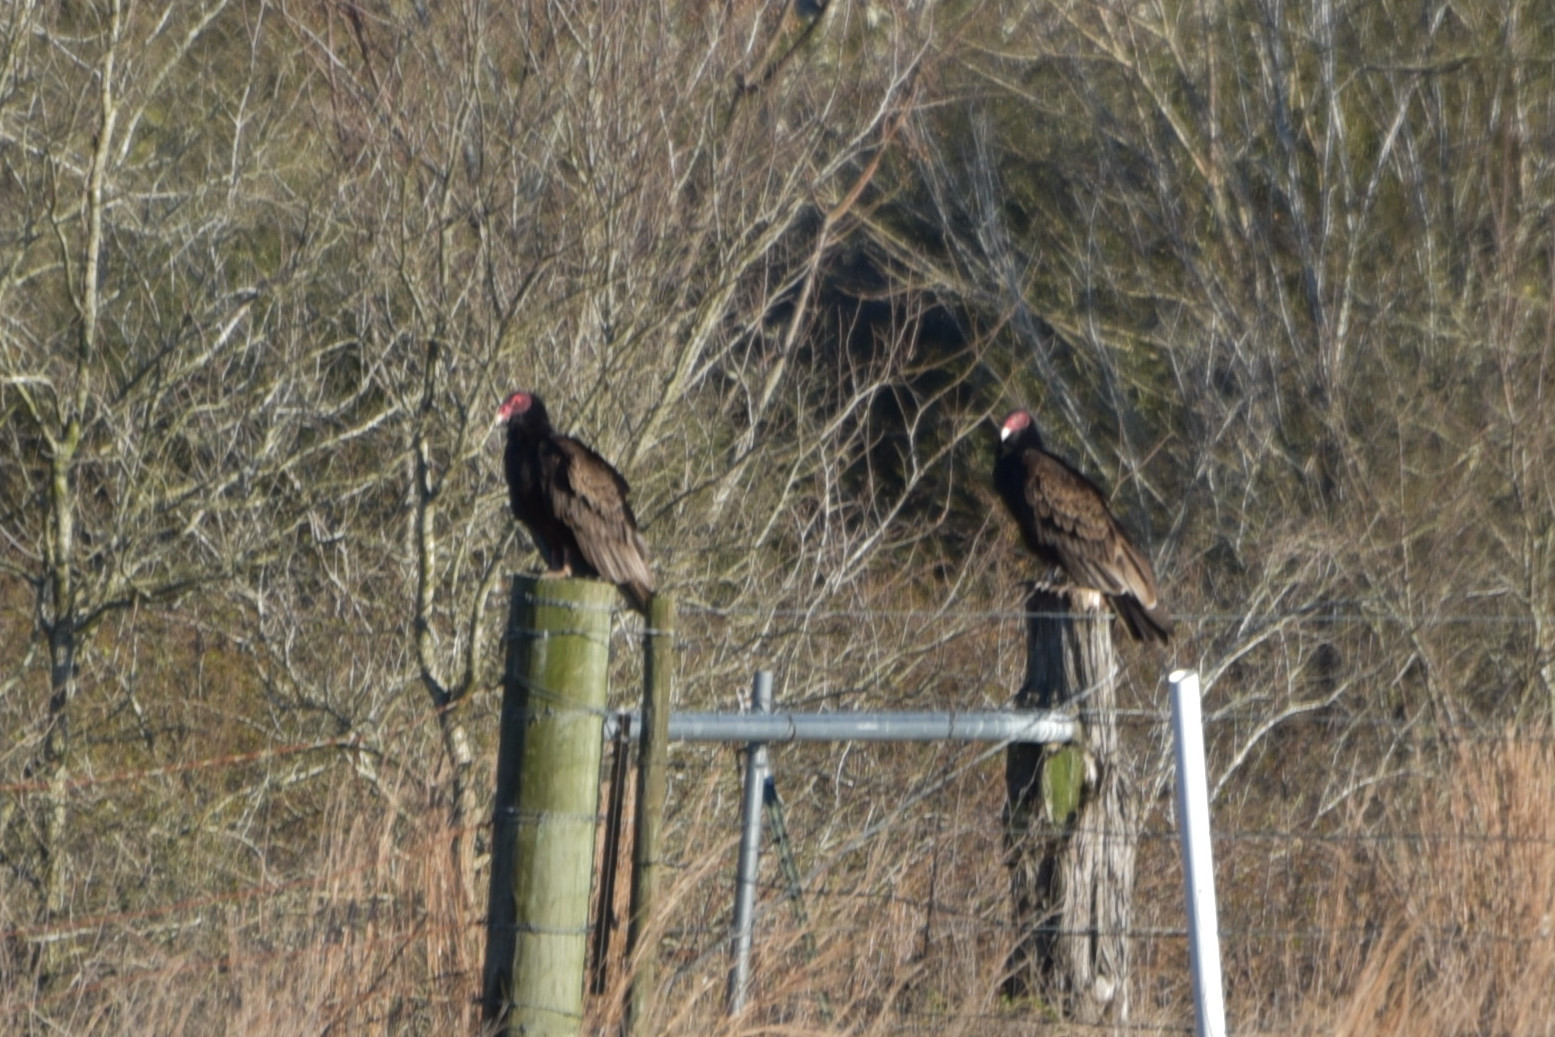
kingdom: Animalia
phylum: Chordata
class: Aves
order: Accipitriformes
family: Cathartidae
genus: Cathartes
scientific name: Cathartes aura
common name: Turkey vulture
